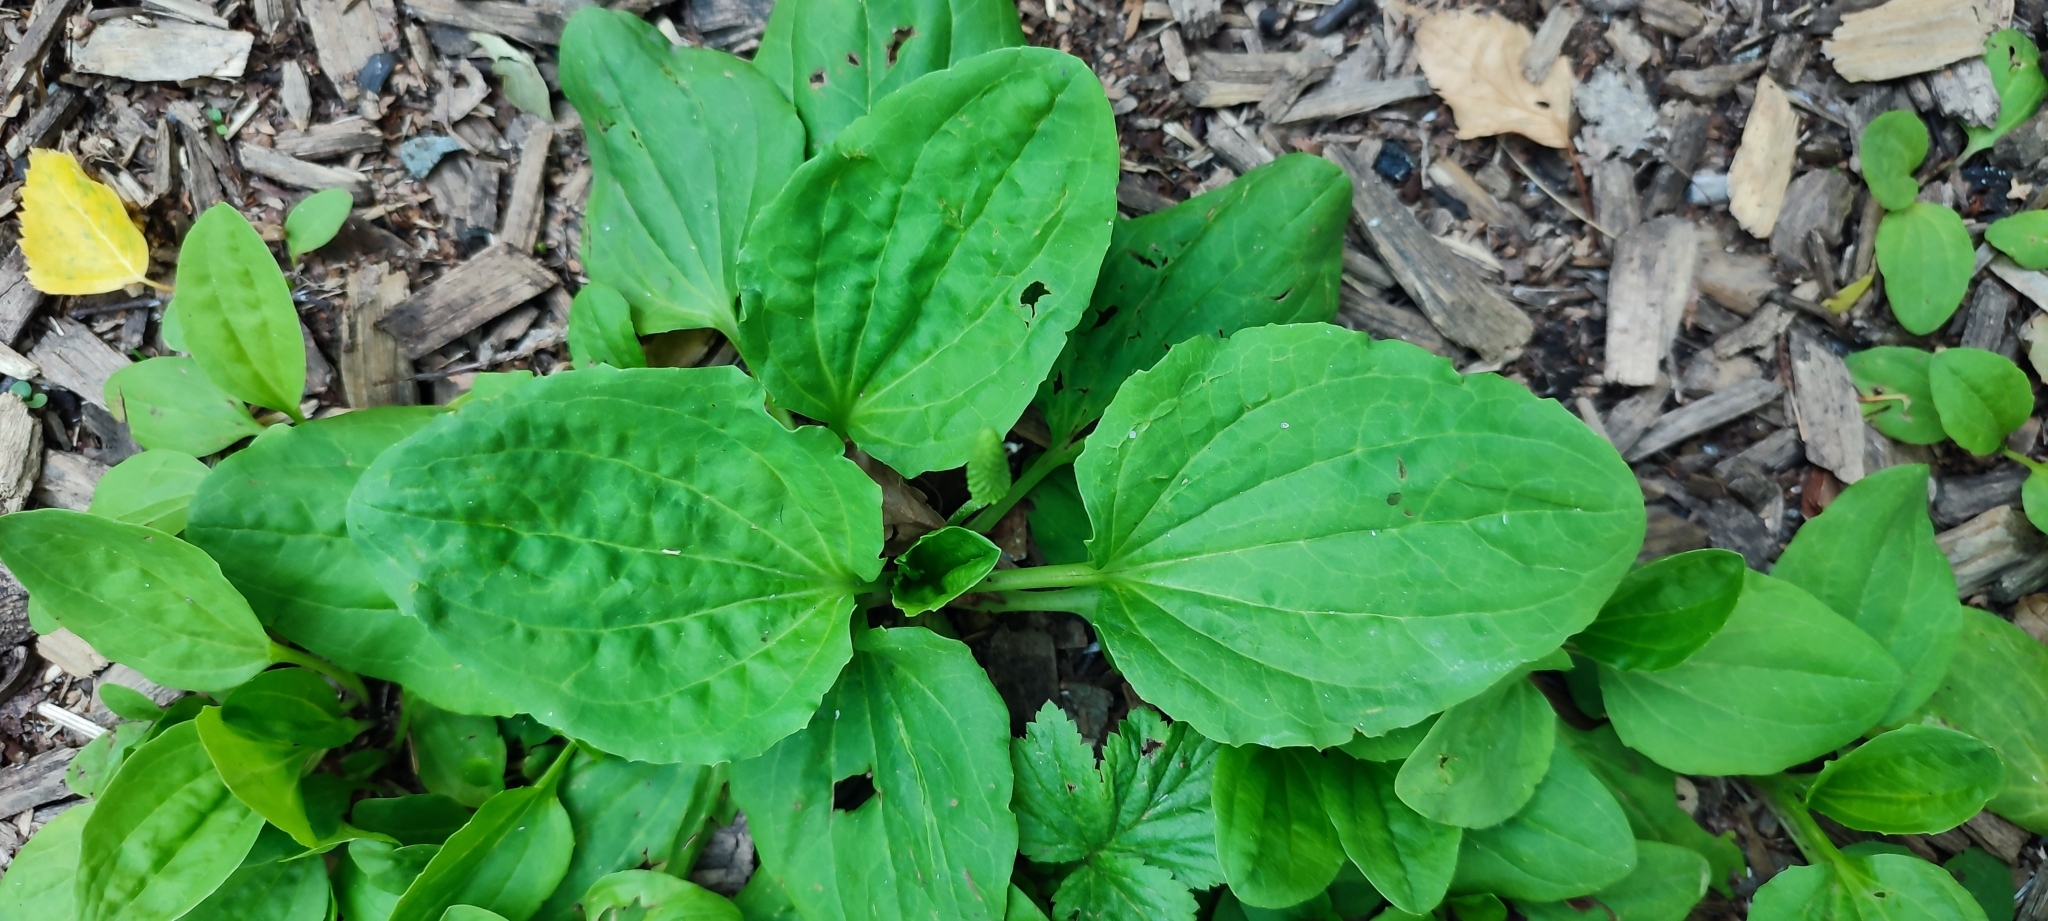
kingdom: Plantae
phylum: Tracheophyta
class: Magnoliopsida
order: Lamiales
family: Plantaginaceae
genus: Plantago
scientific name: Plantago major
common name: Common plantain
